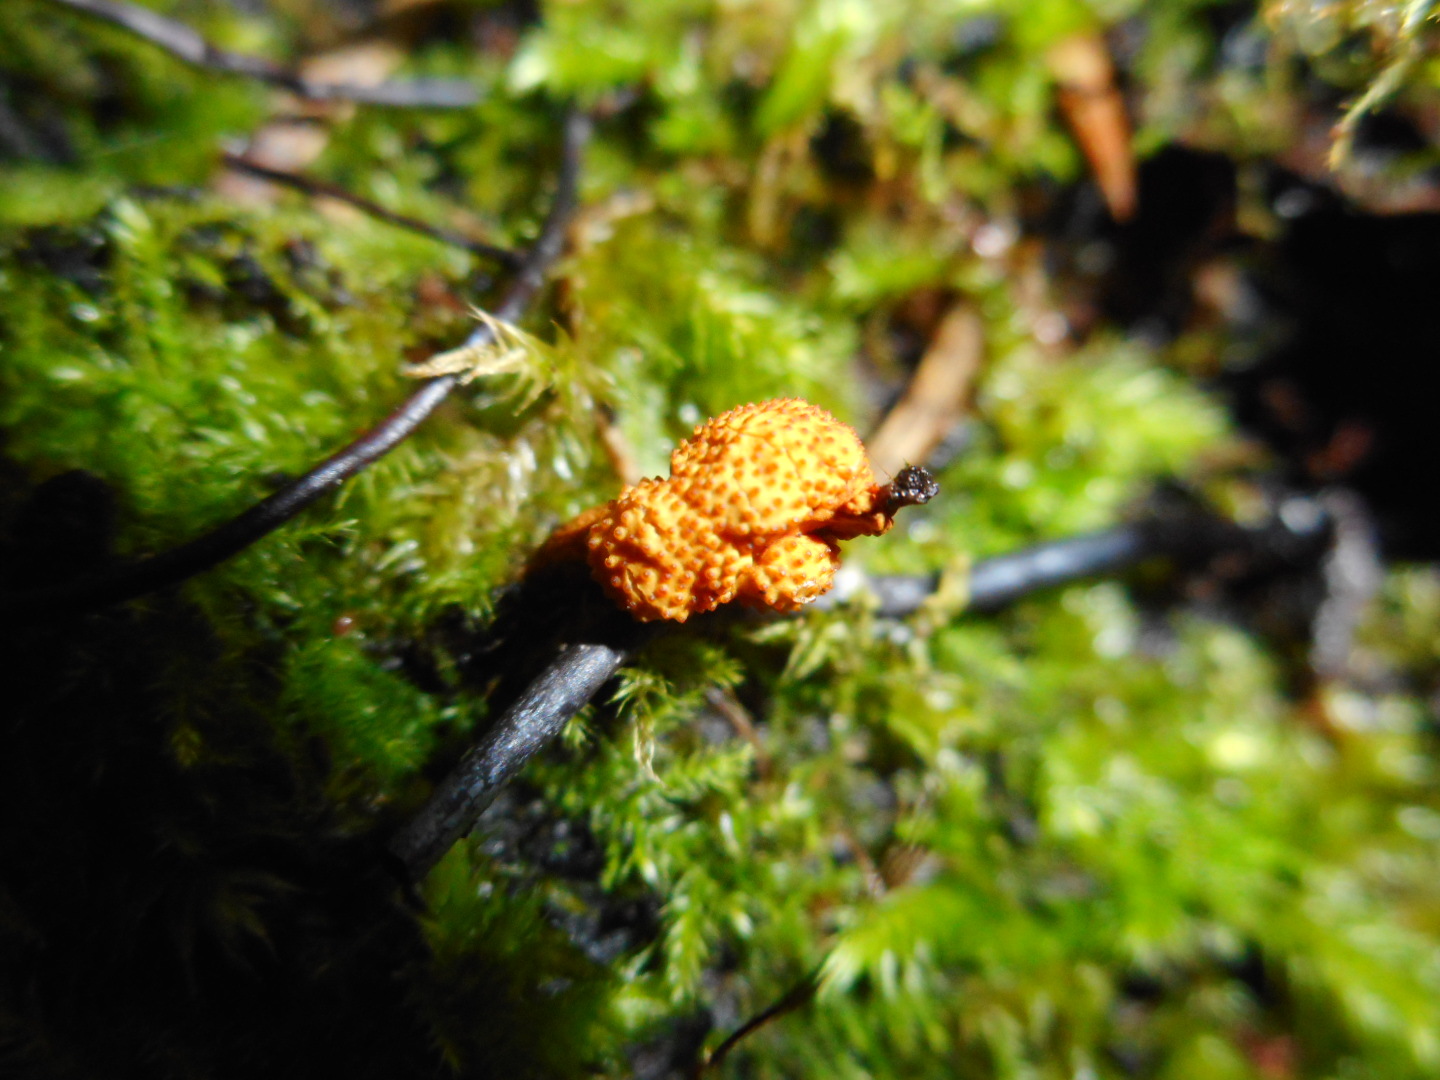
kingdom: Fungi
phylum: Ascomycota
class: Sordariomycetes
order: Hypocreales
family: Ophiocordycipitaceae
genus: Ophiocordyceps
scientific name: Ophiocordyceps variabilis
